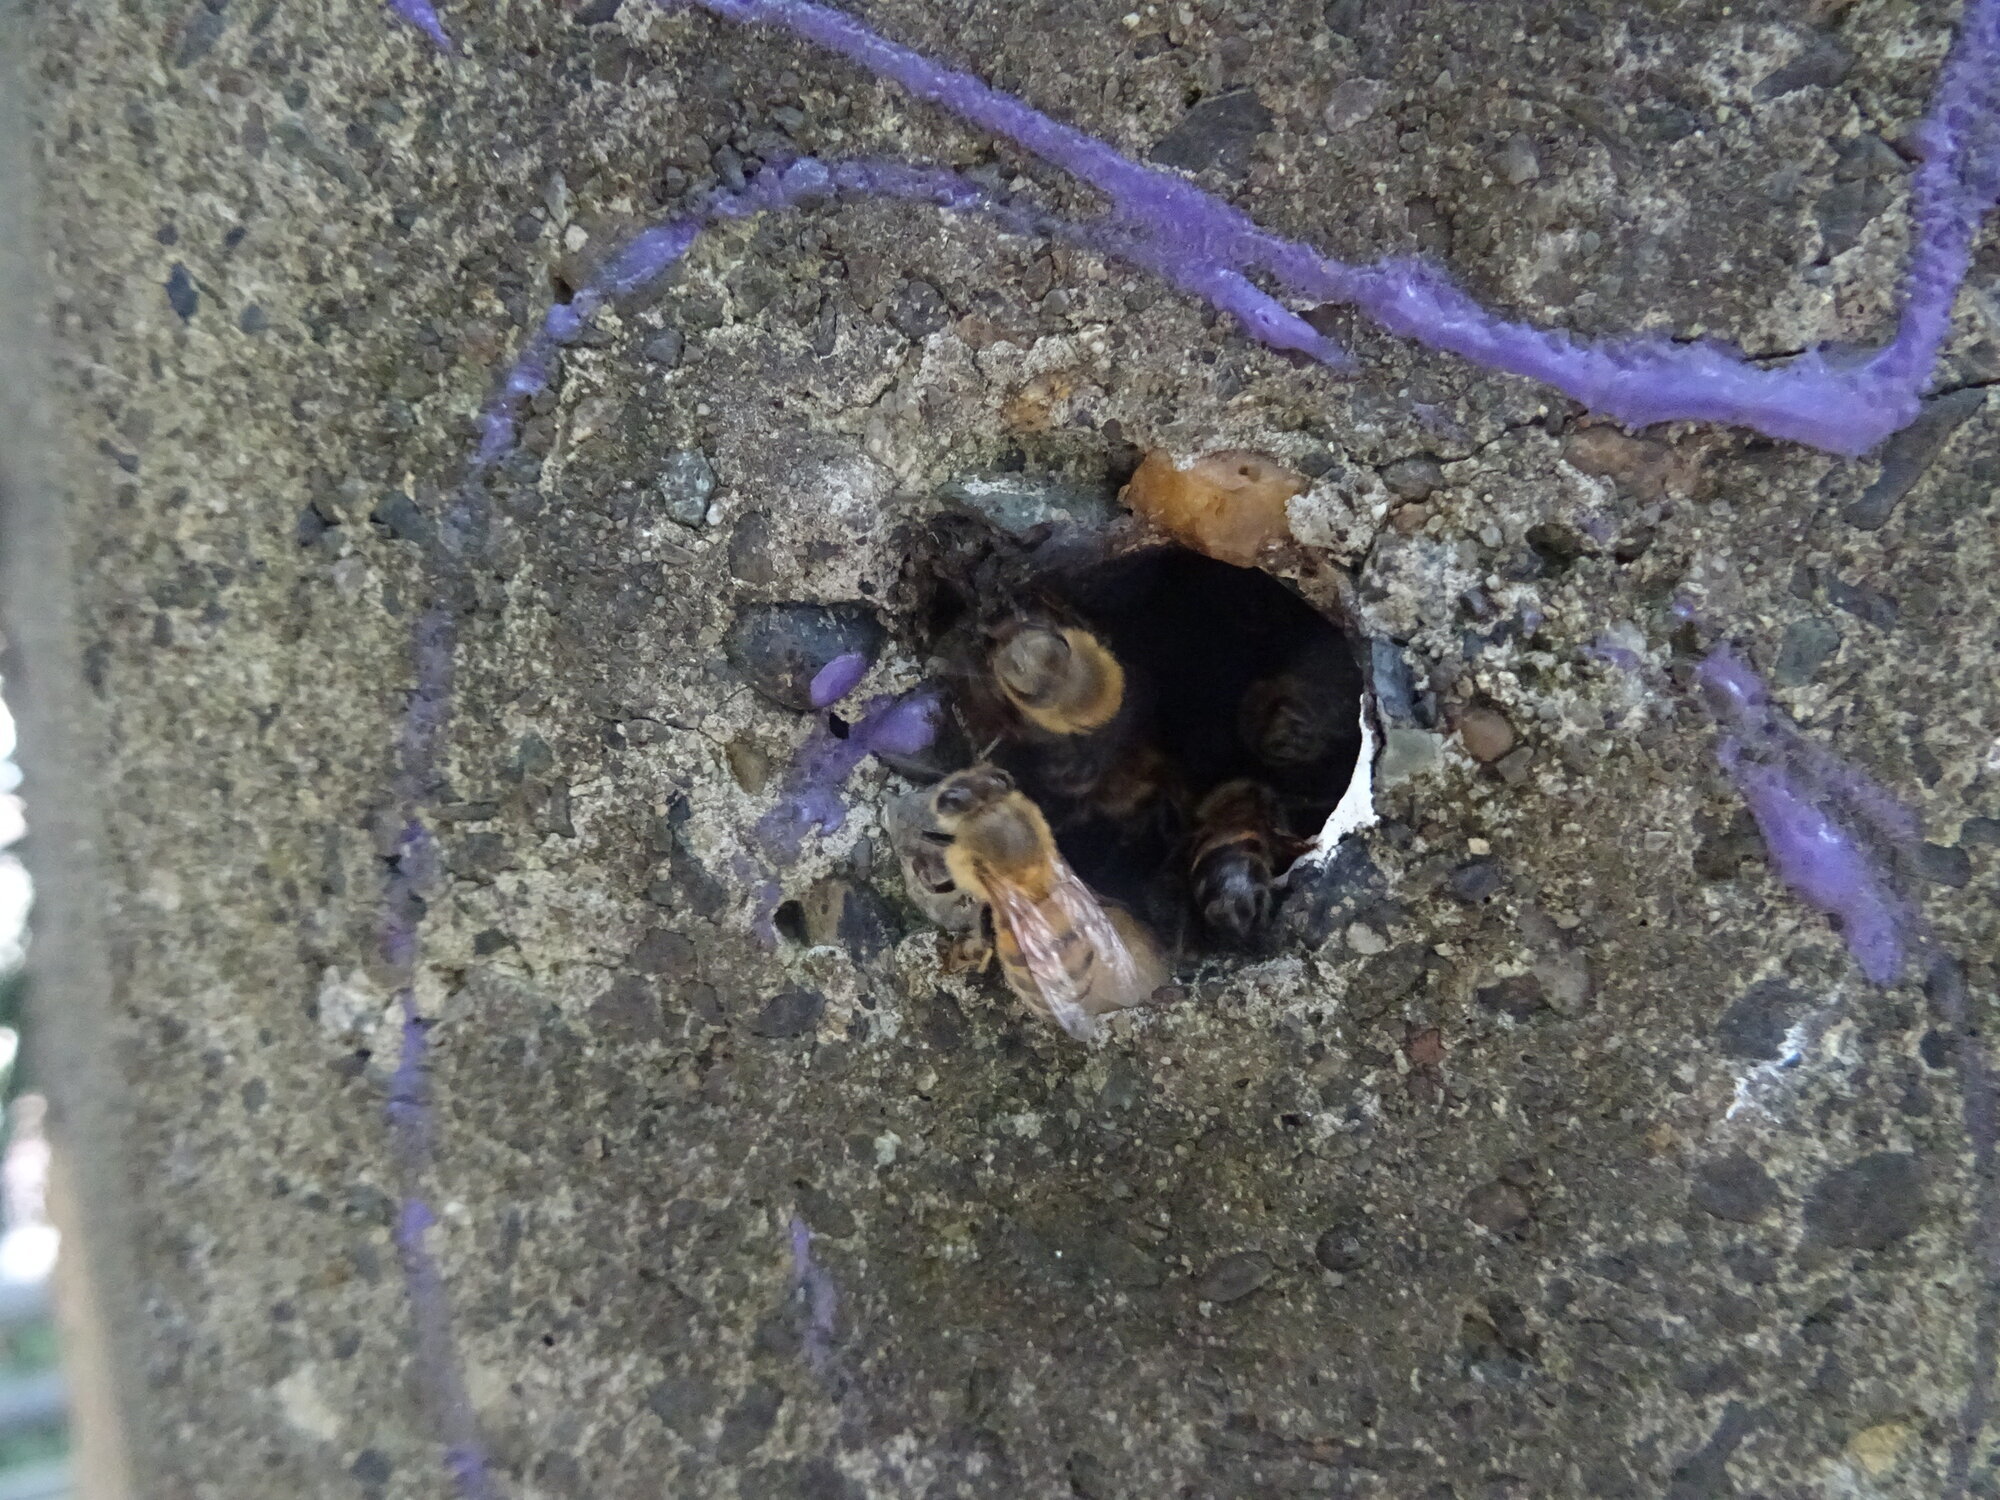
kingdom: Animalia
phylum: Arthropoda
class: Insecta
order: Hymenoptera
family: Apidae
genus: Apis
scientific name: Apis mellifera
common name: Honey bee
